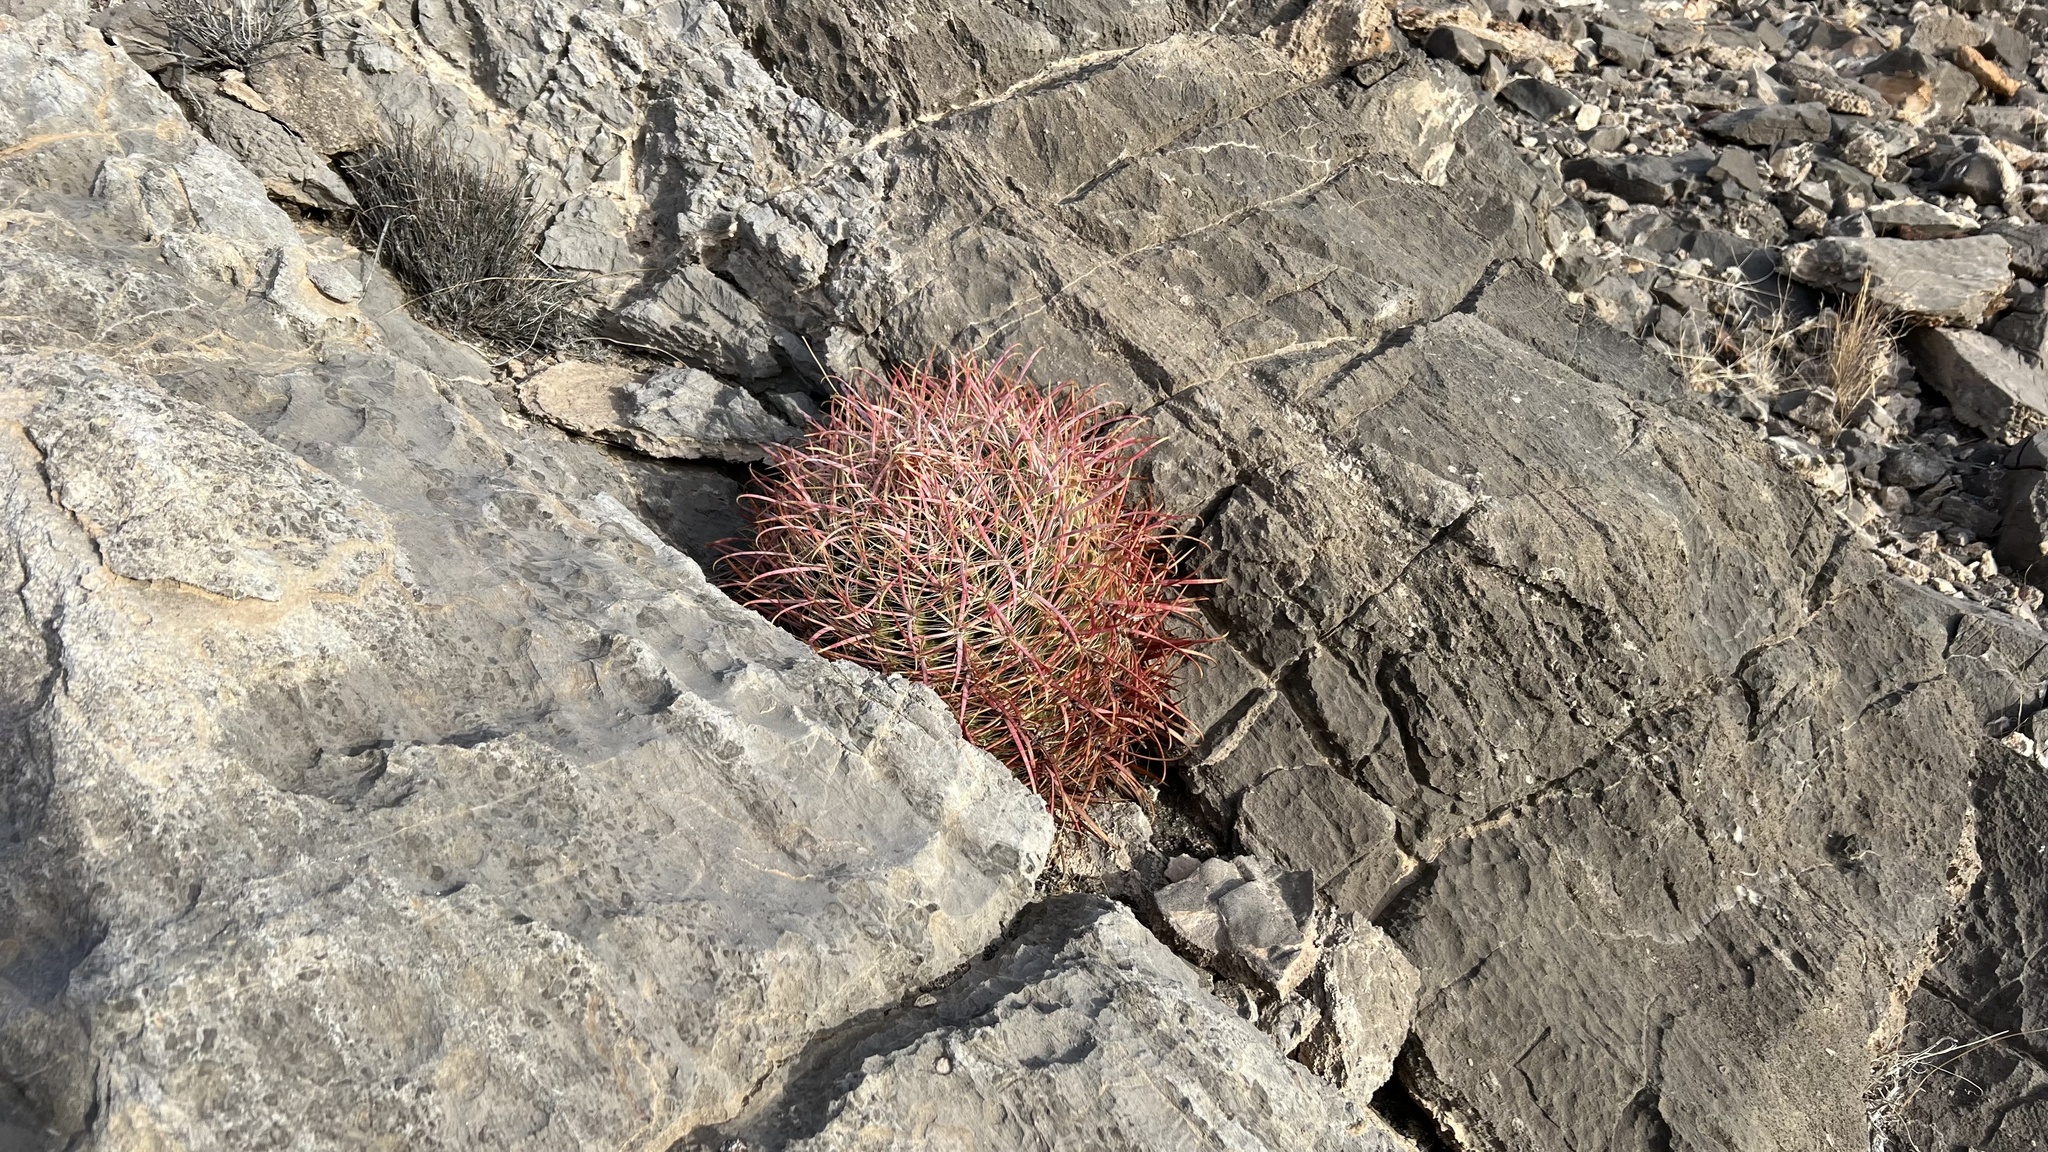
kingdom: Plantae
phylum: Tracheophyta
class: Magnoliopsida
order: Caryophyllales
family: Cactaceae
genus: Ferocactus
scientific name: Ferocactus cylindraceus
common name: California barrel cactus
